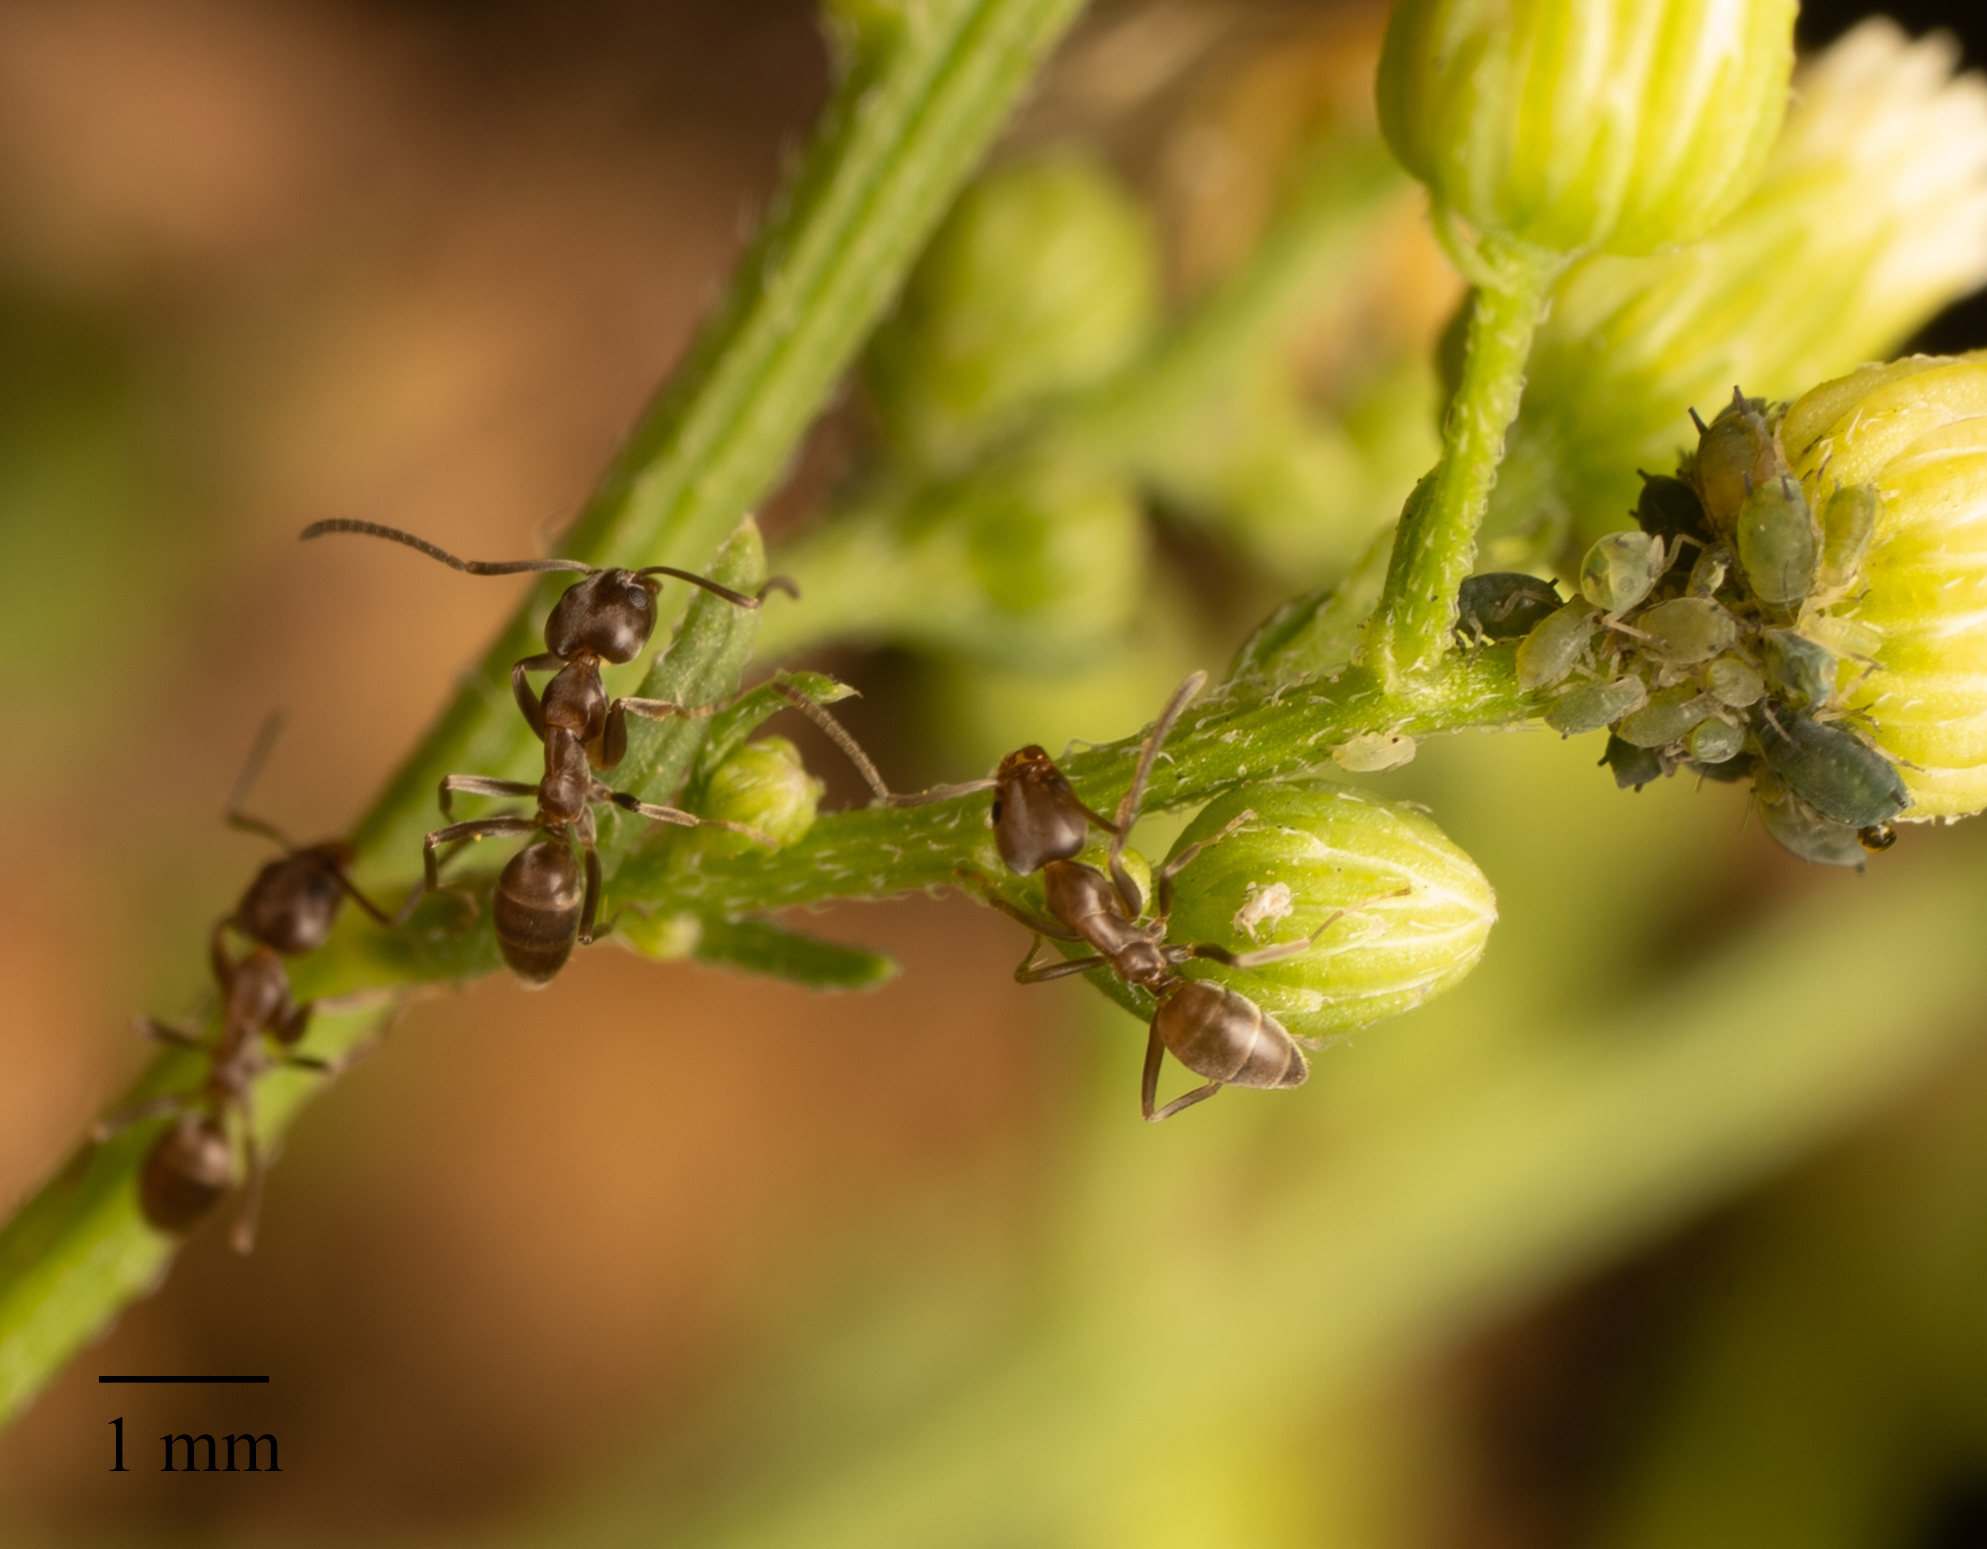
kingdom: Animalia
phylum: Arthropoda
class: Insecta
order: Hymenoptera
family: Formicidae
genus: Linepithema
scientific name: Linepithema humile
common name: Argentine ant
